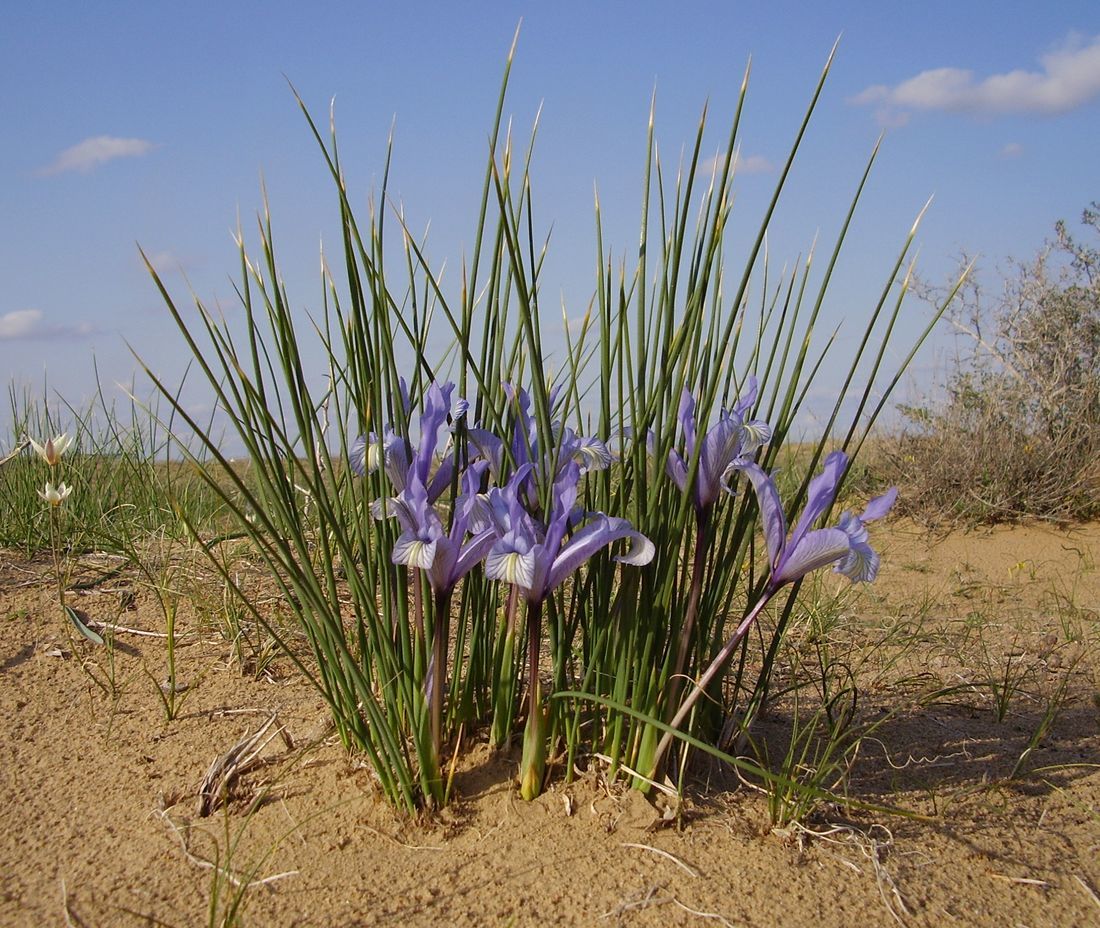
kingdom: Plantae
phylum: Tracheophyta
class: Liliopsida
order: Asparagales
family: Iridaceae
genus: Iris
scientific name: Iris tenuifolia
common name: Slender-leaf iris
